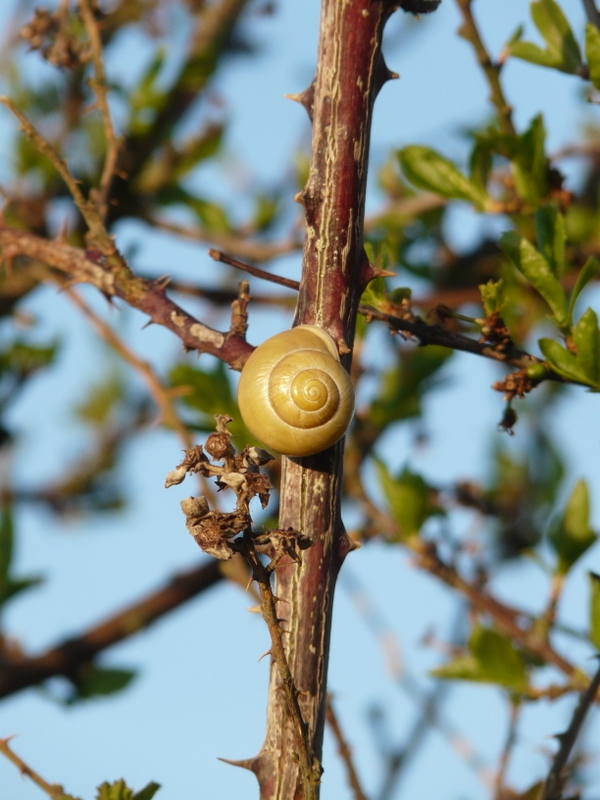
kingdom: Animalia
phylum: Mollusca
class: Gastropoda
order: Stylommatophora
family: Helicidae
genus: Cepaea
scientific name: Cepaea hortensis
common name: White-lip gardensnail
